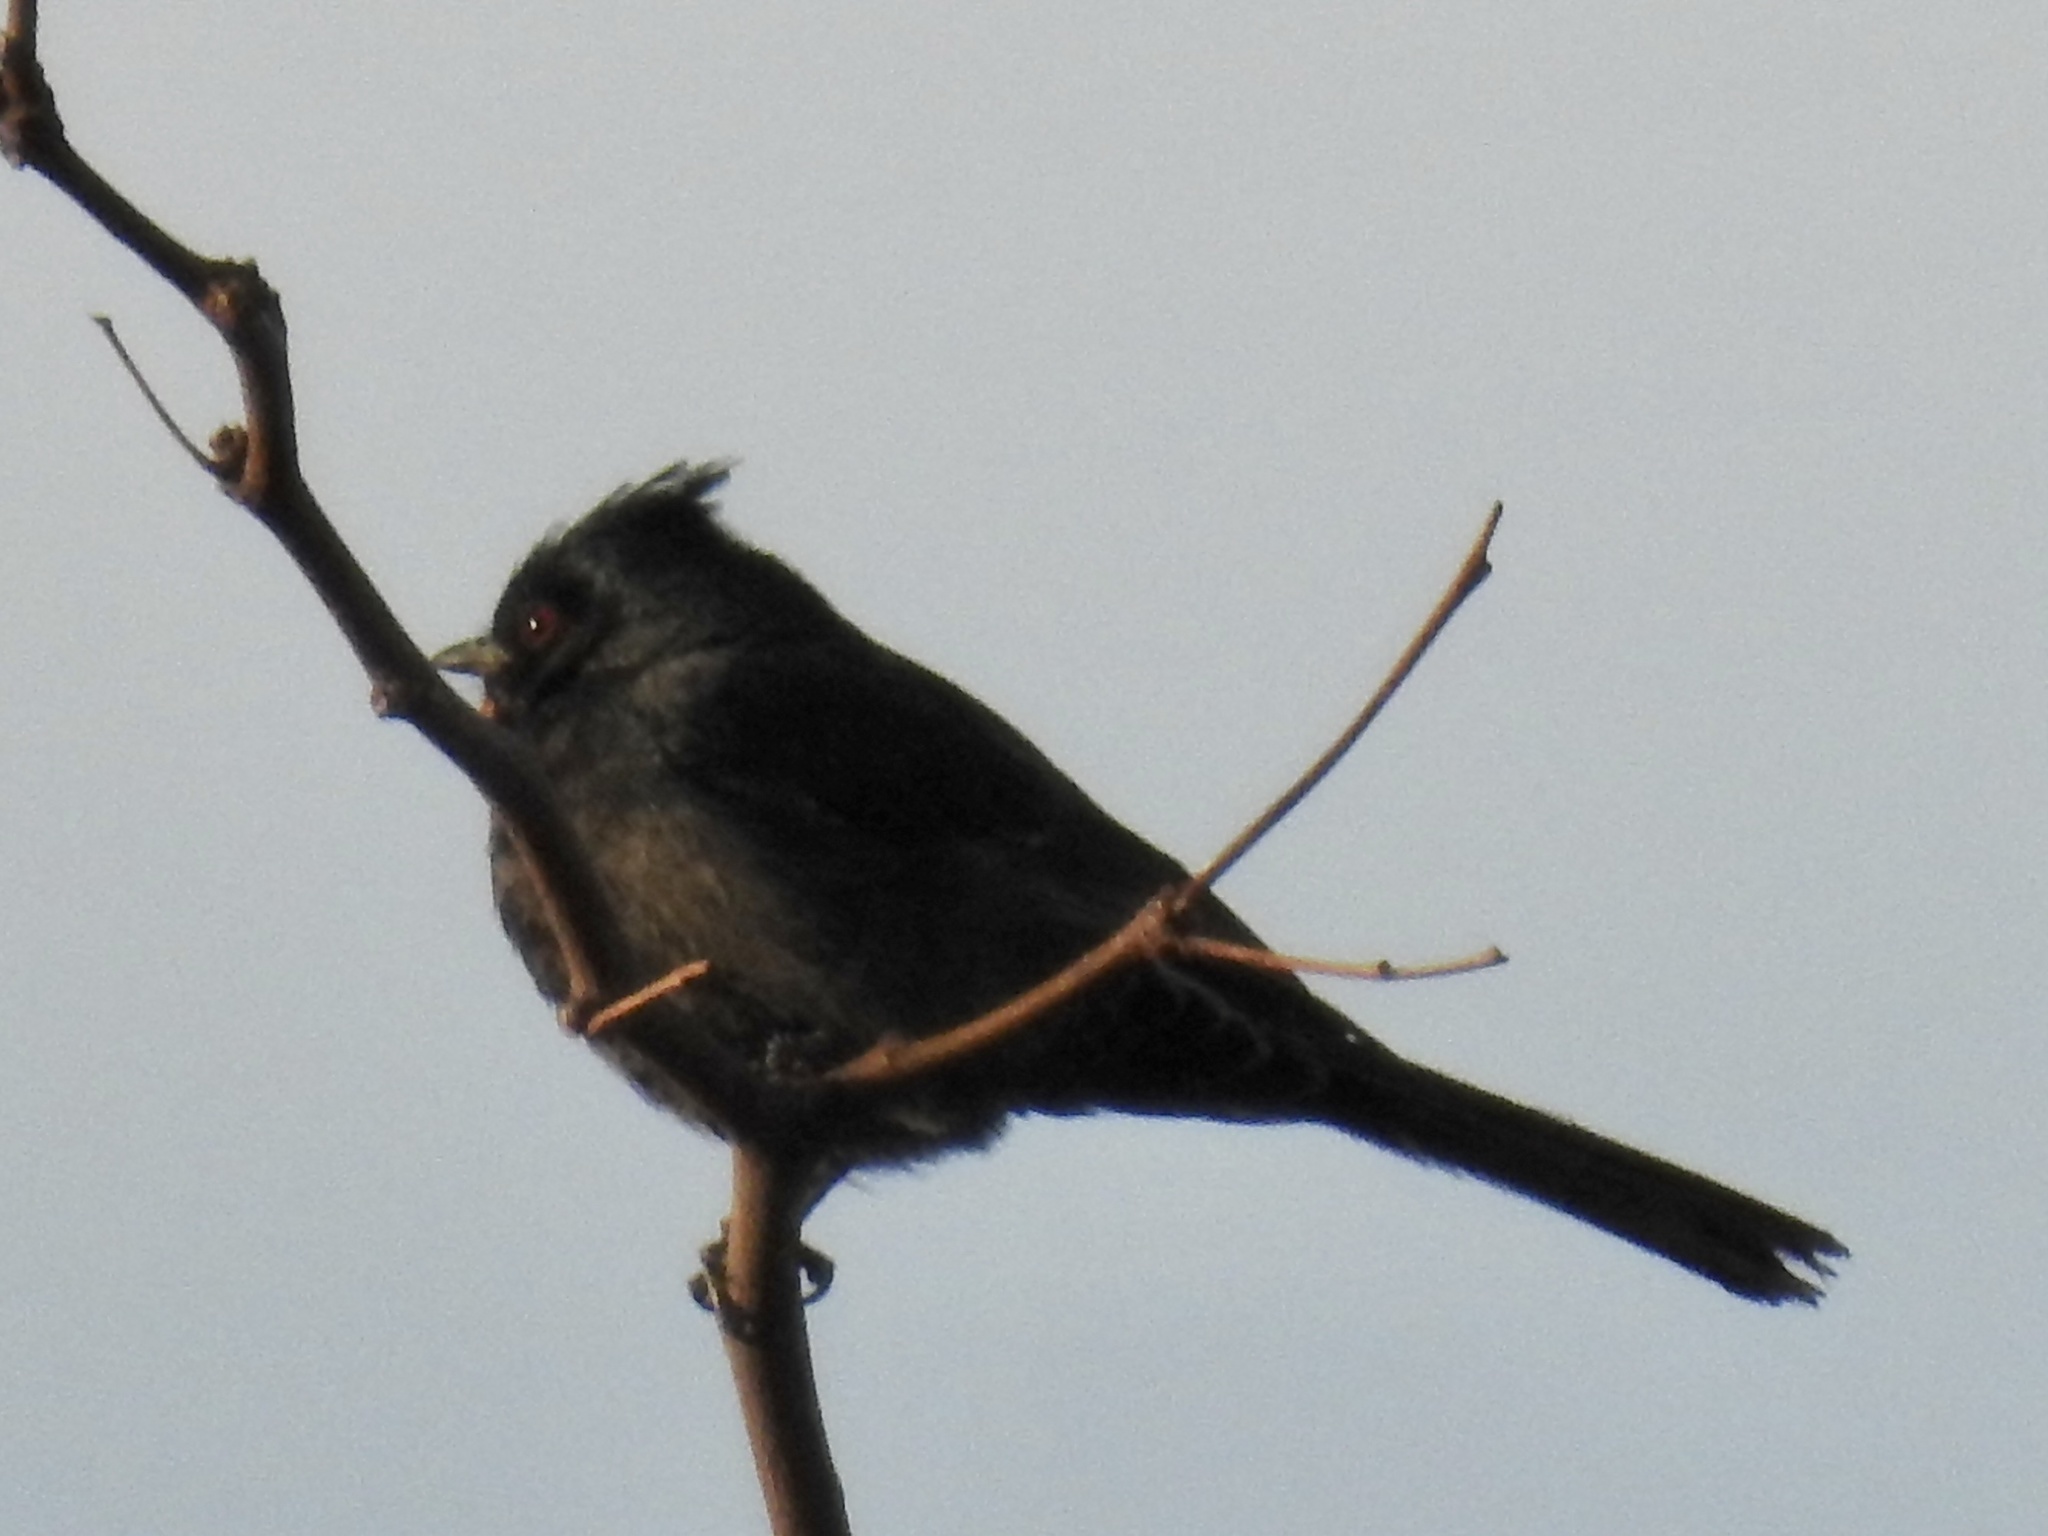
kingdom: Animalia
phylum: Chordata
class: Aves
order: Passeriformes
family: Ptilogonatidae
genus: Phainopepla
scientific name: Phainopepla nitens
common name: Phainopepla
